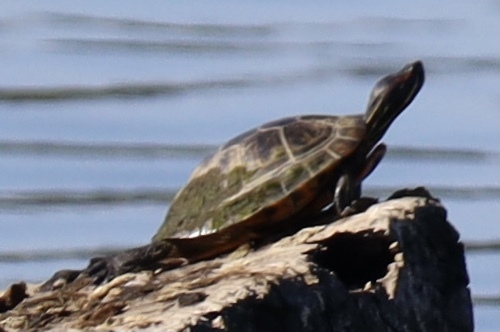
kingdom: Animalia
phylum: Chordata
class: Testudines
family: Emydidae
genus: Trachemys
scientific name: Trachemys scripta
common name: Slider
